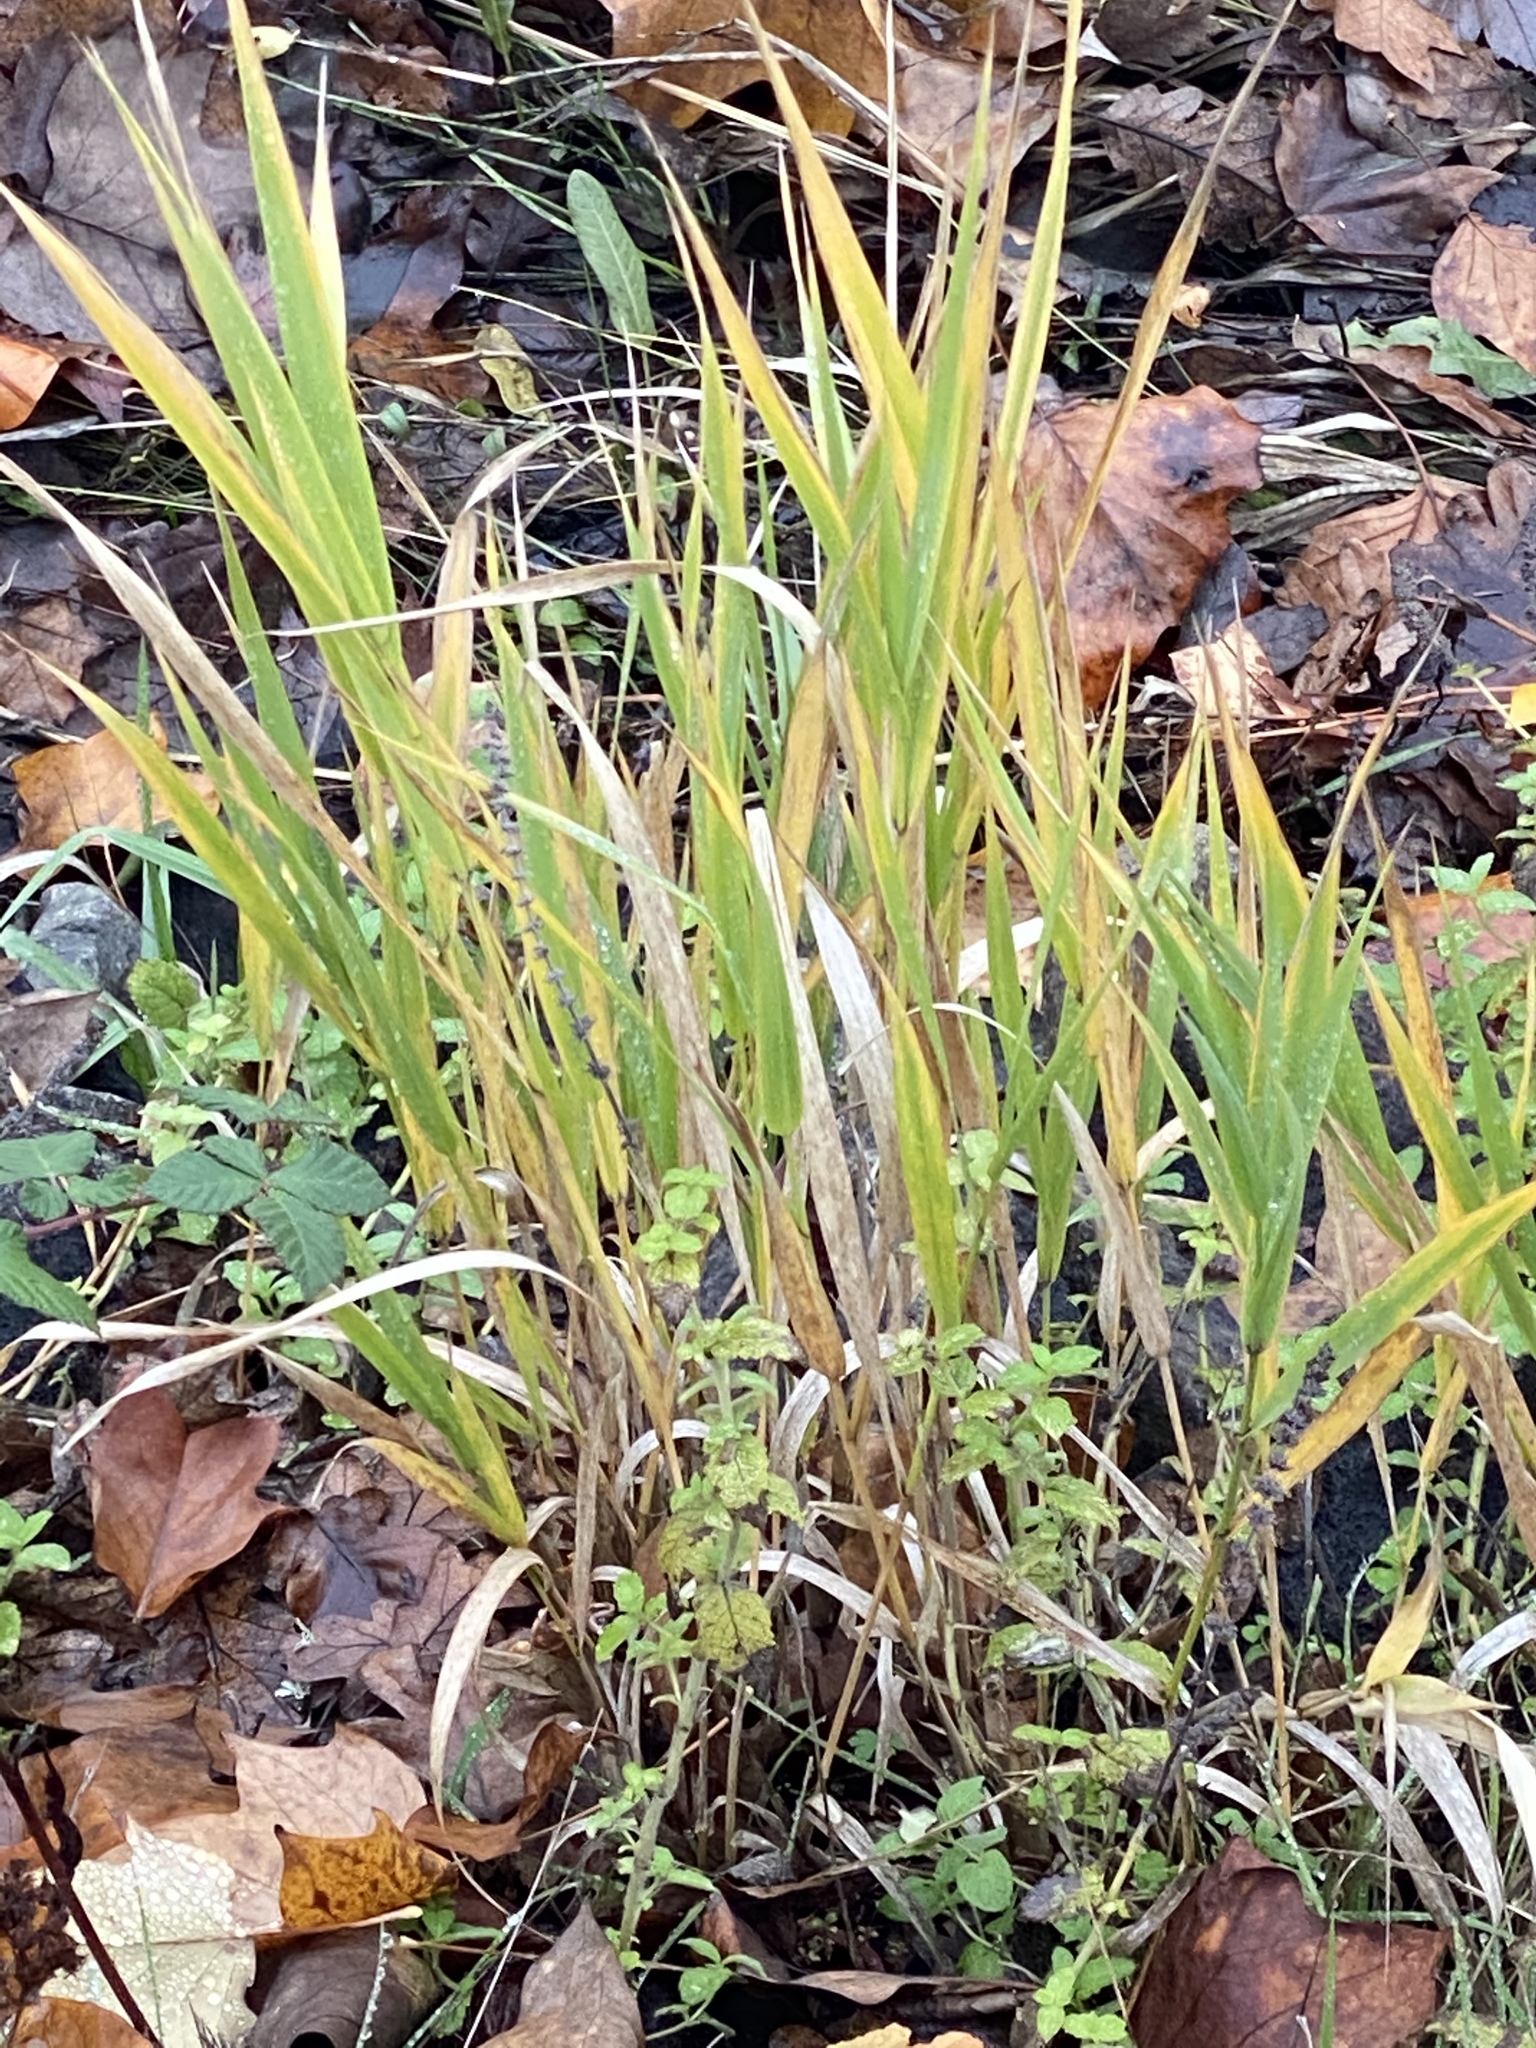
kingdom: Plantae
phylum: Tracheophyta
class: Liliopsida
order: Poales
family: Poaceae
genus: Phalaris
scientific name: Phalaris arundinacea
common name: Reed canary-grass
